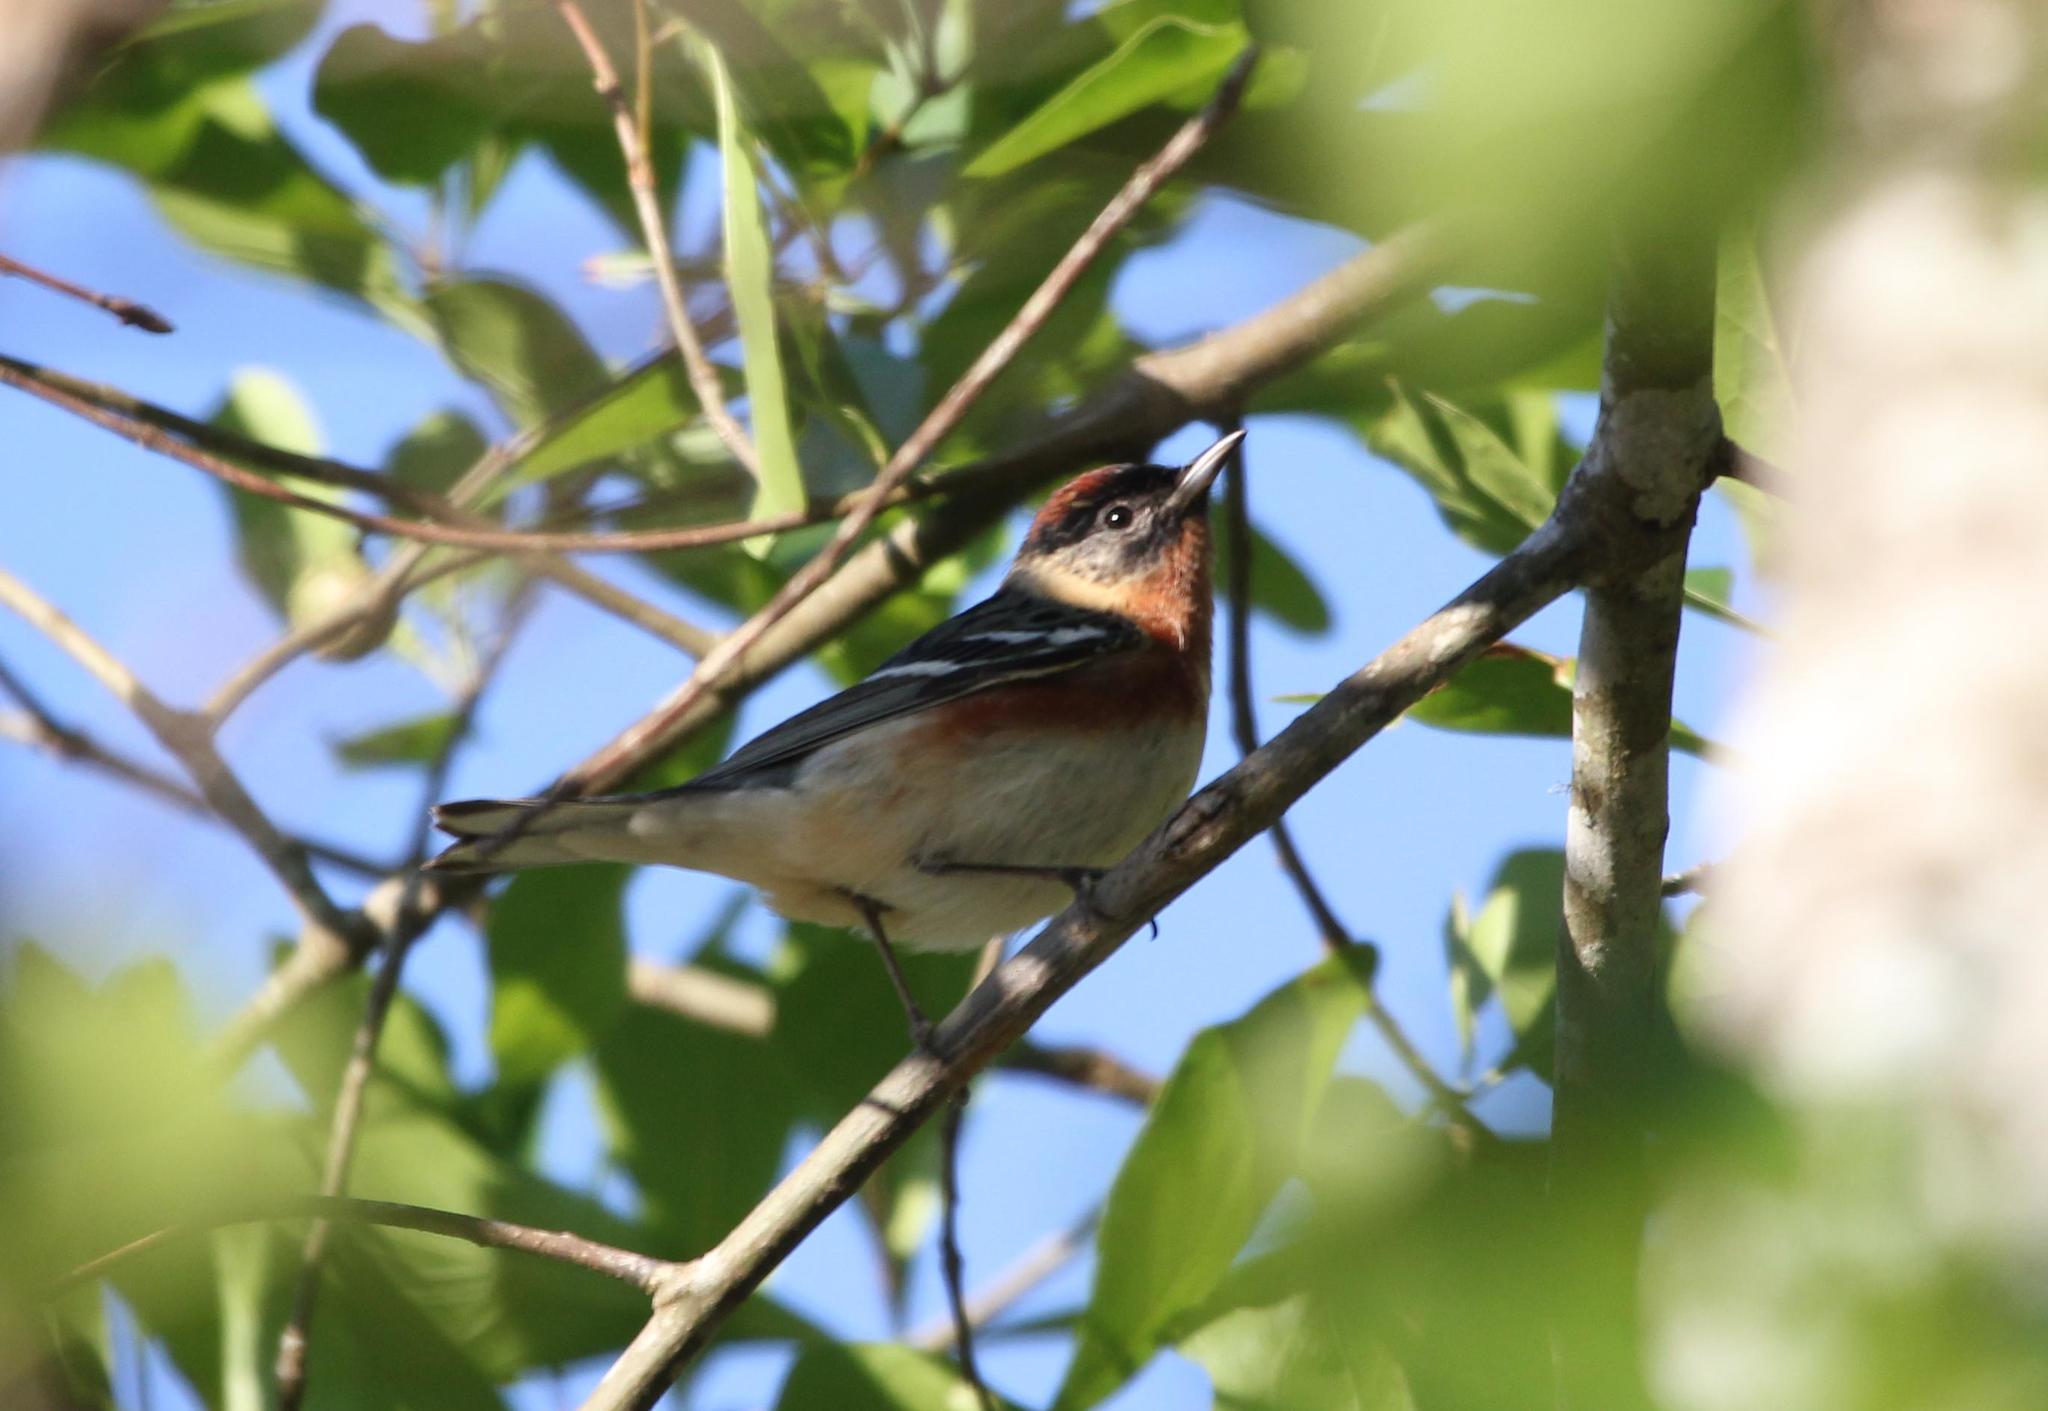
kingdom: Animalia
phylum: Chordata
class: Aves
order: Passeriformes
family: Parulidae
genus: Setophaga
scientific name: Setophaga castanea
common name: Bay-breasted warbler
